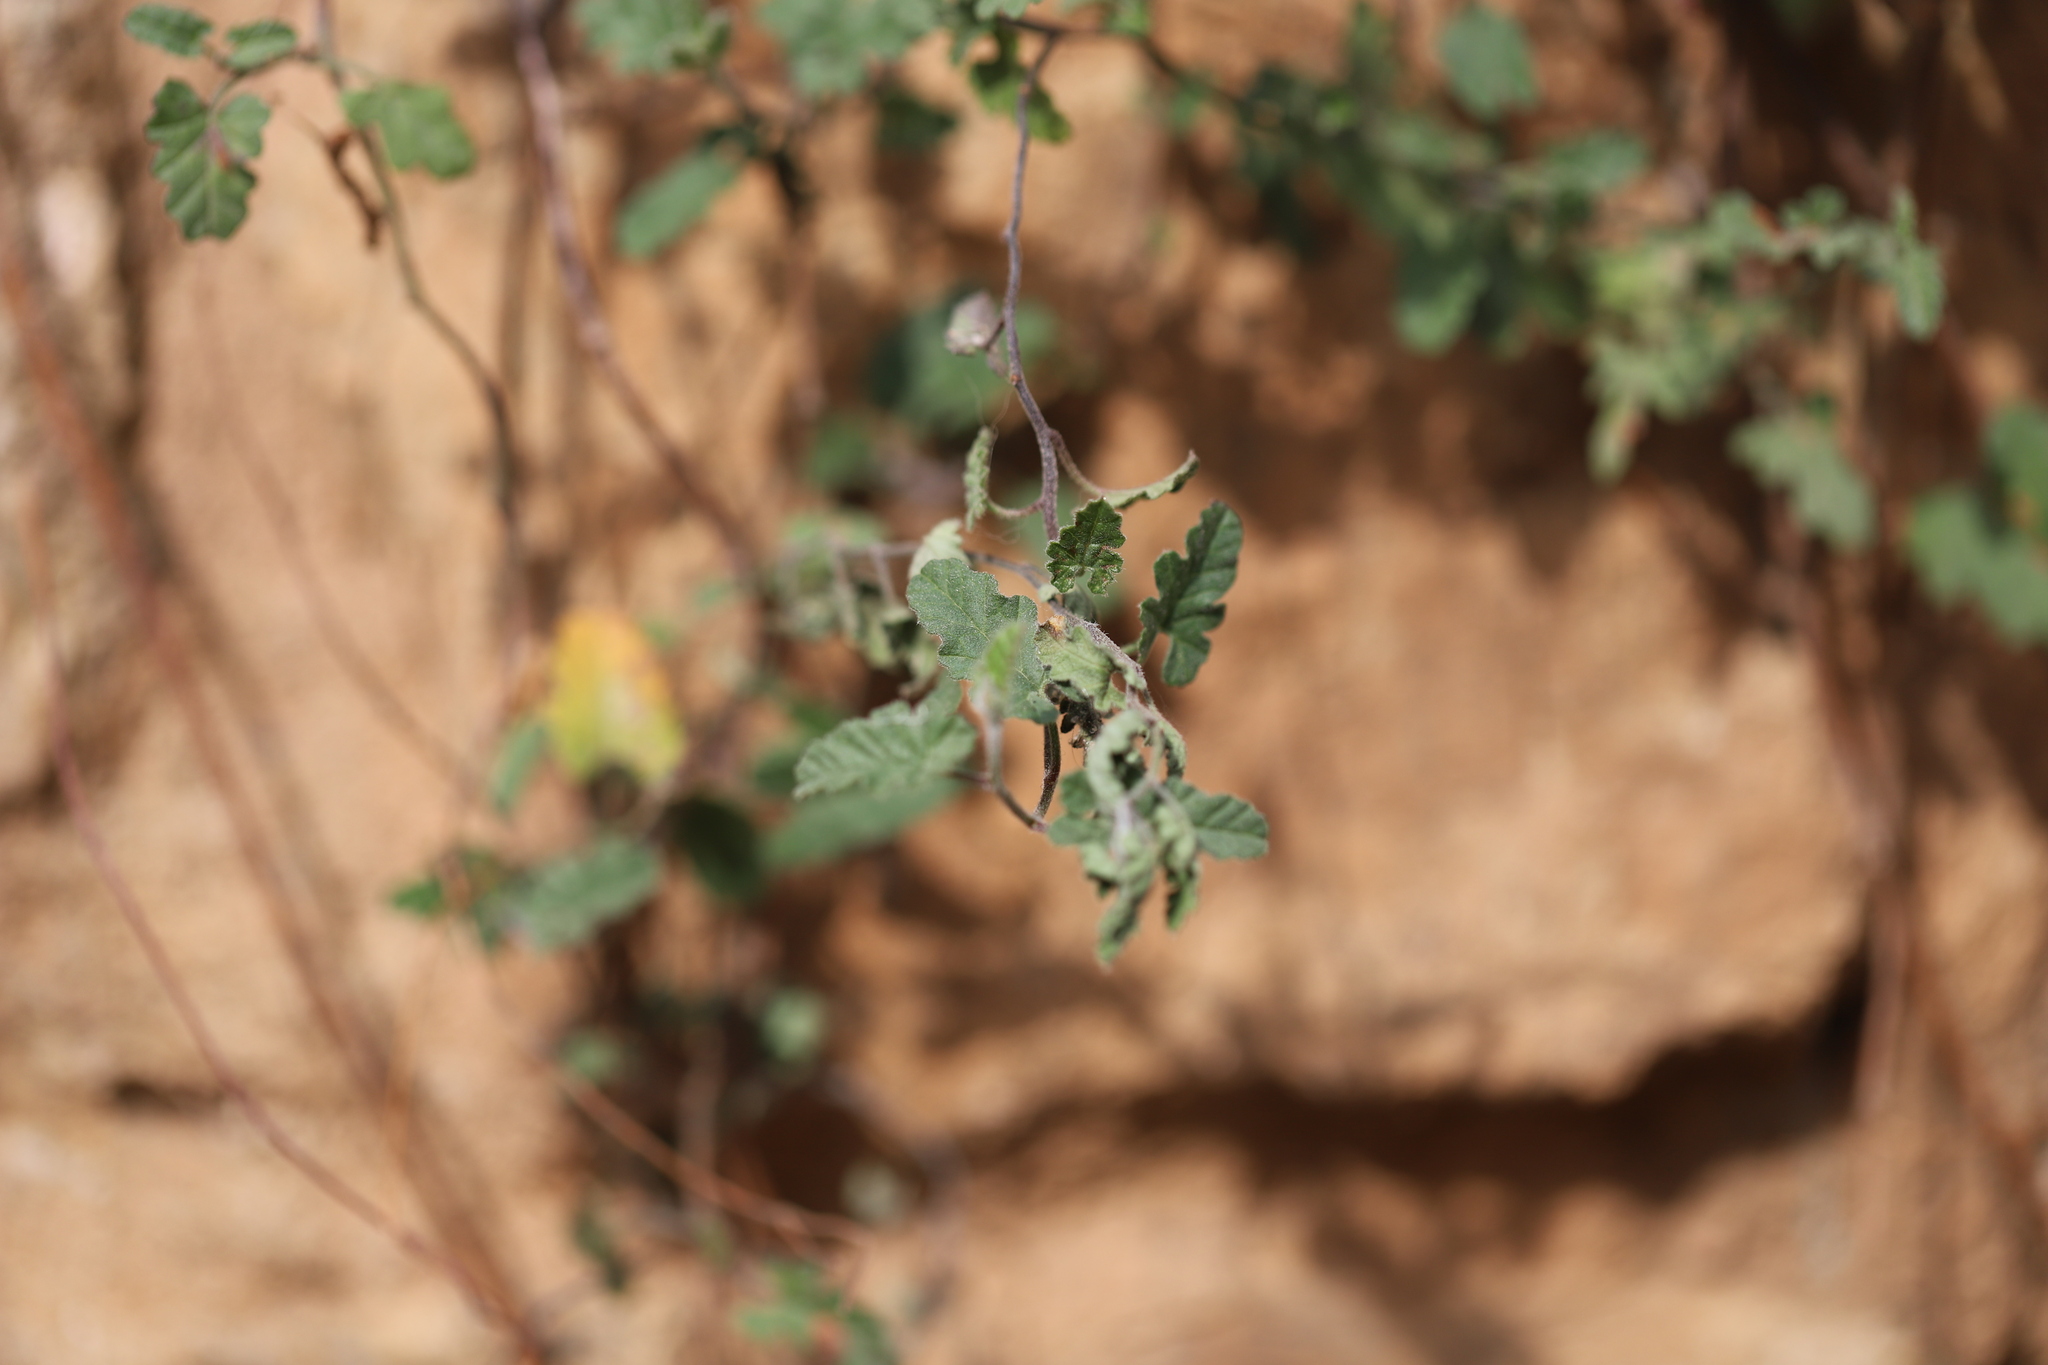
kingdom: Plantae
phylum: Tracheophyta
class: Magnoliopsida
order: Solanales
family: Convolvulaceae
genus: Convolvulus
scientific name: Convolvulus althaeoides
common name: Mallow bindweed
